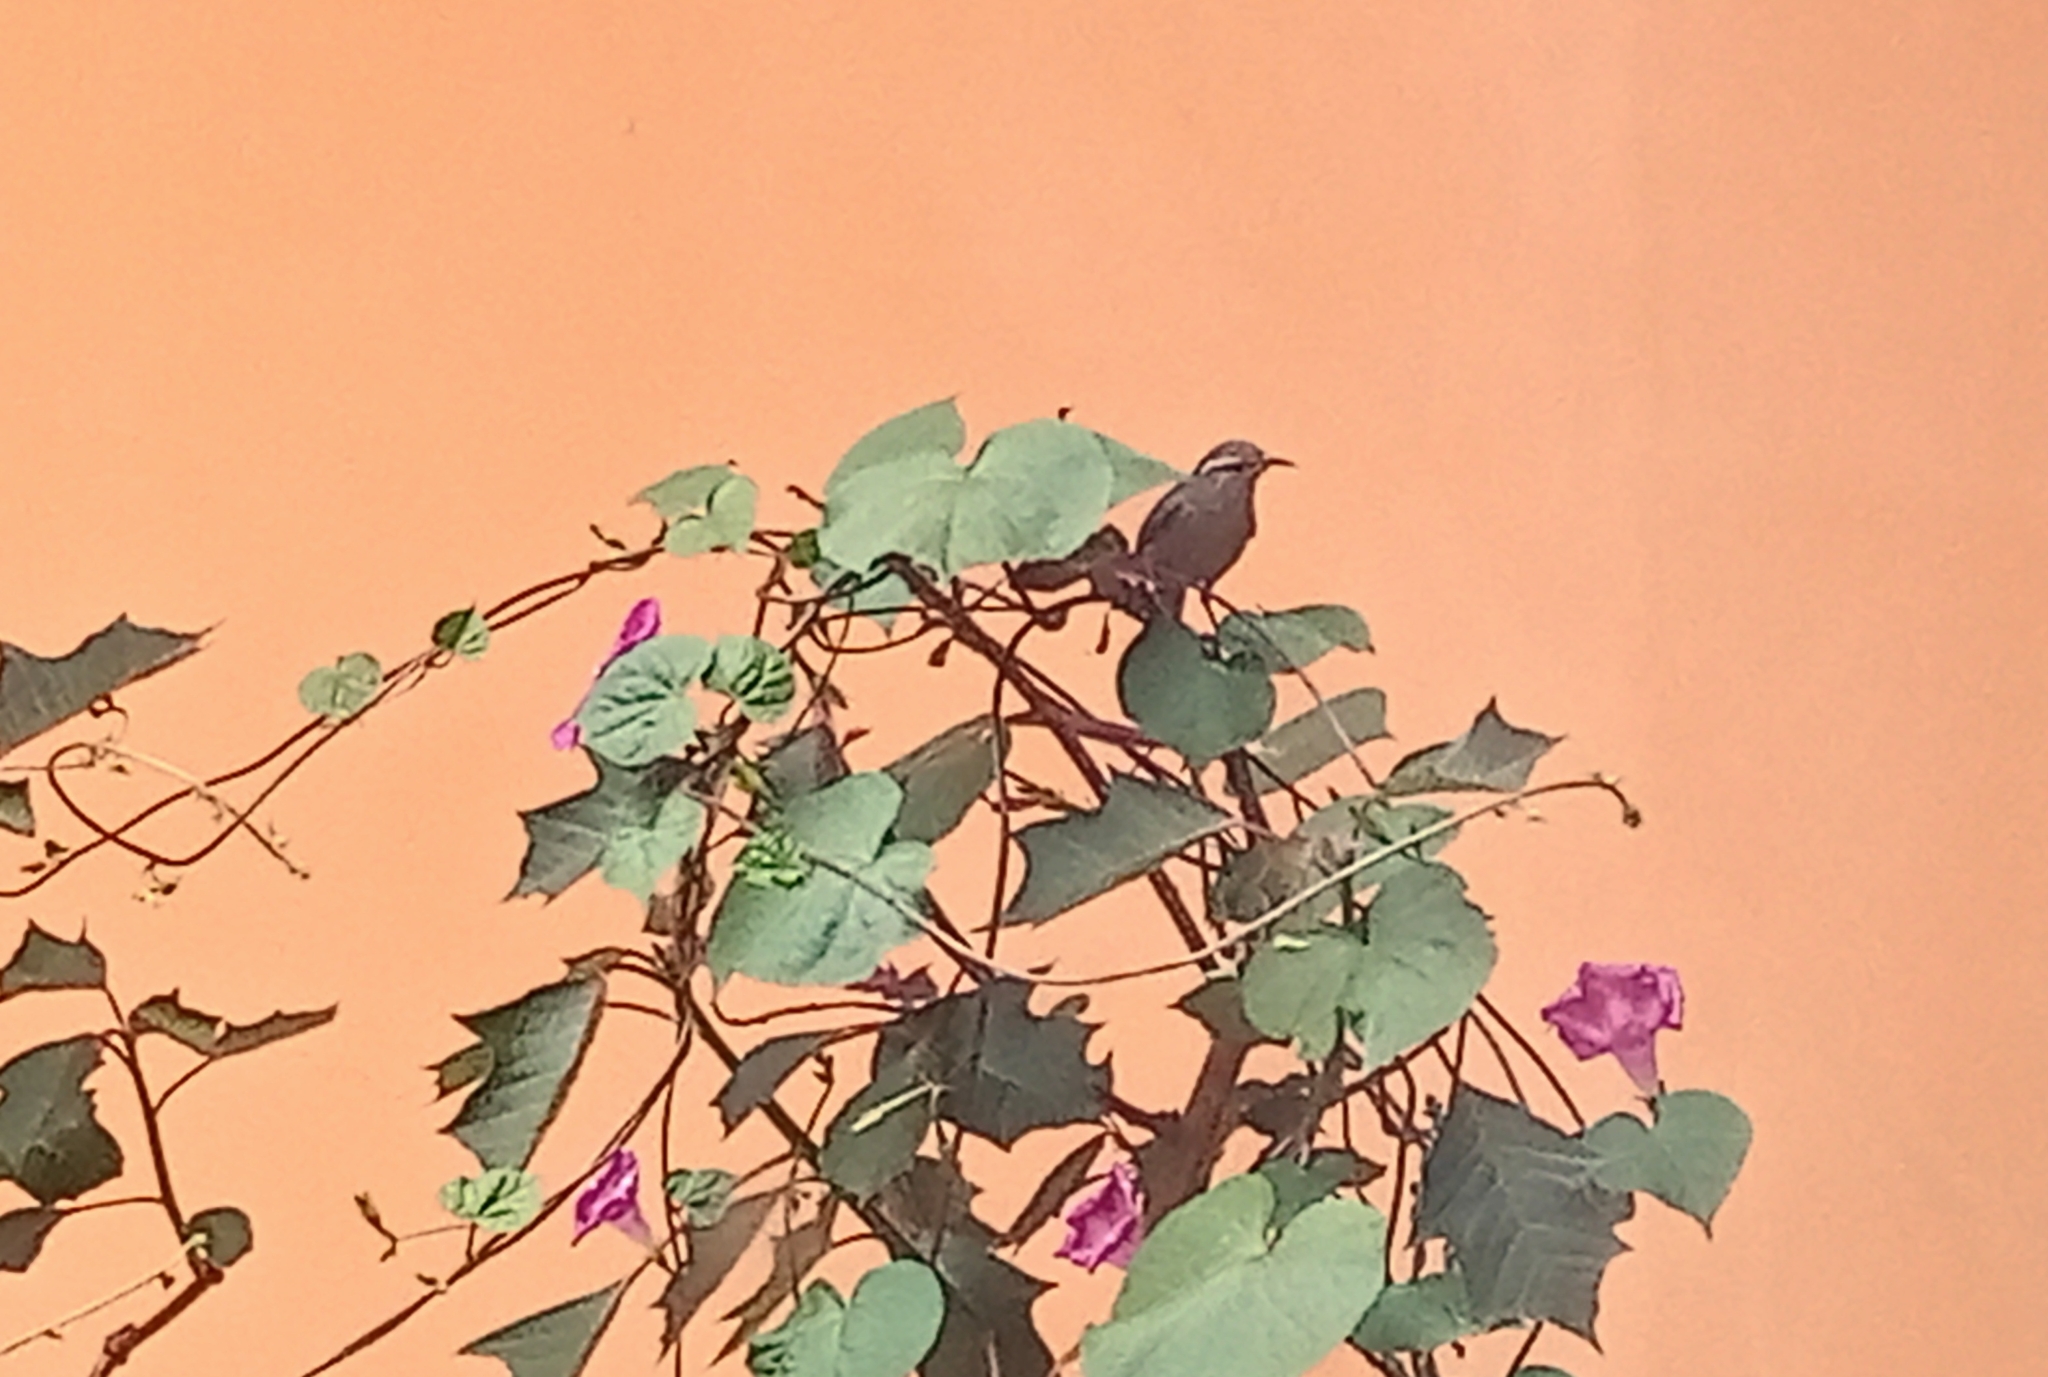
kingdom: Animalia
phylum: Chordata
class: Aves
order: Passeriformes
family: Troglodytidae
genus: Thryomanes
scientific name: Thryomanes bewickii
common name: Bewick's wren
